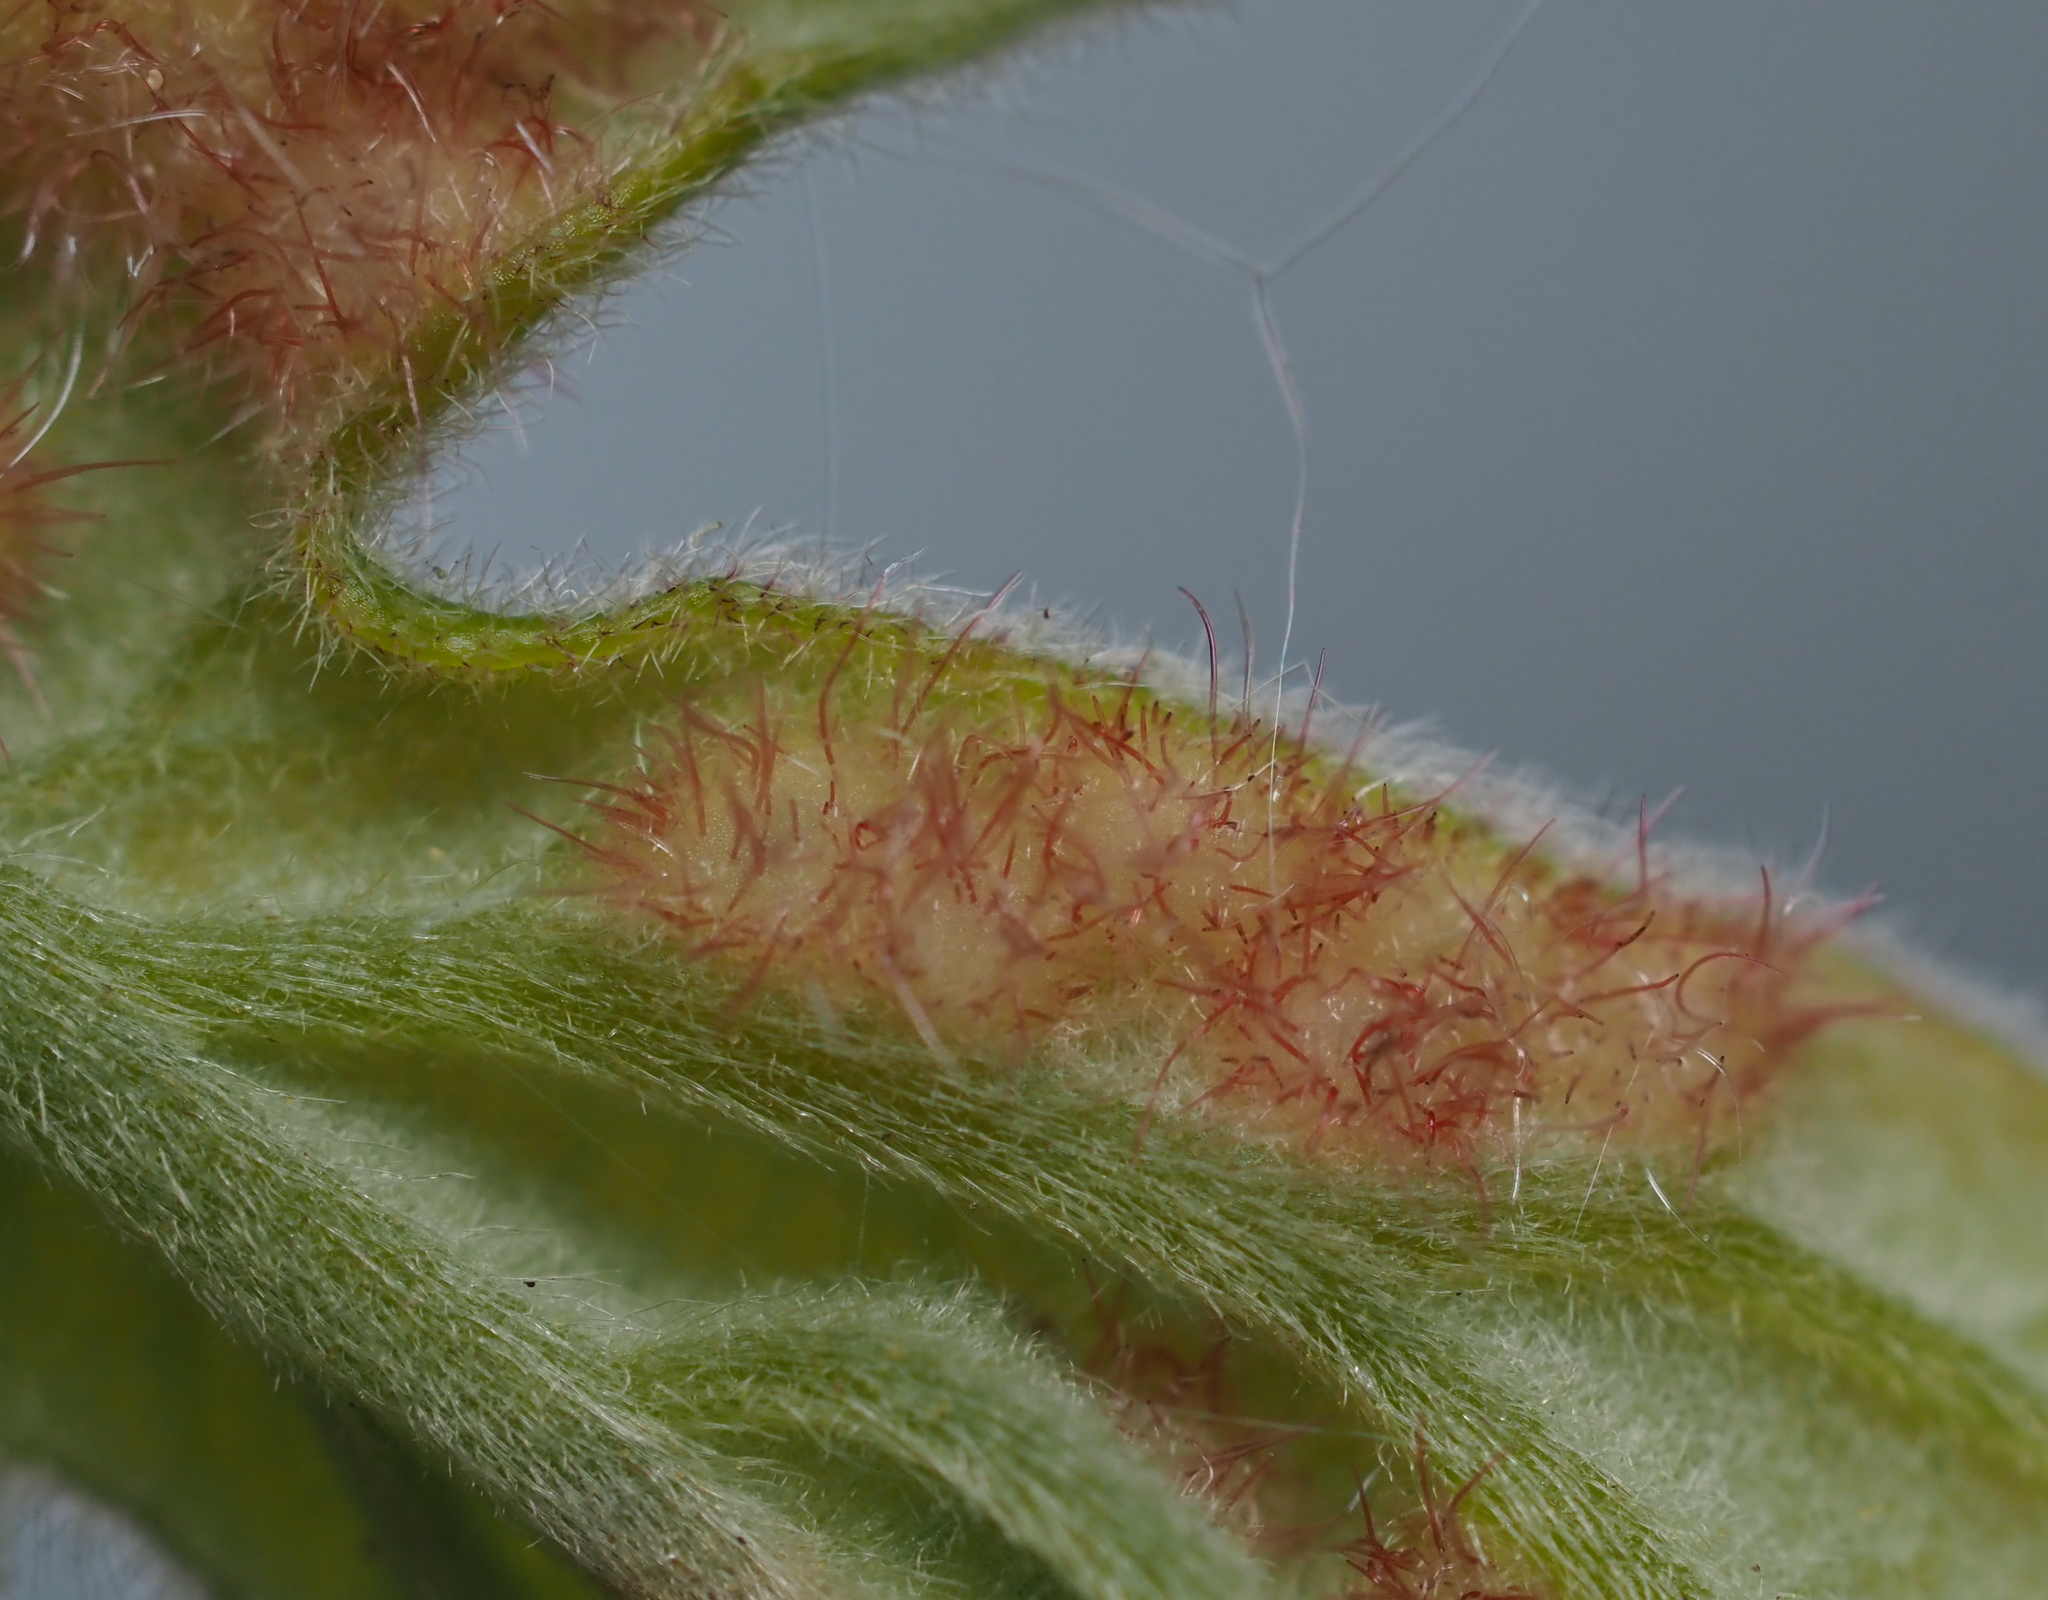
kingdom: Animalia
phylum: Arthropoda
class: Insecta
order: Hymenoptera
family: Cynipidae
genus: Neuroterus
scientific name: Neuroterus
